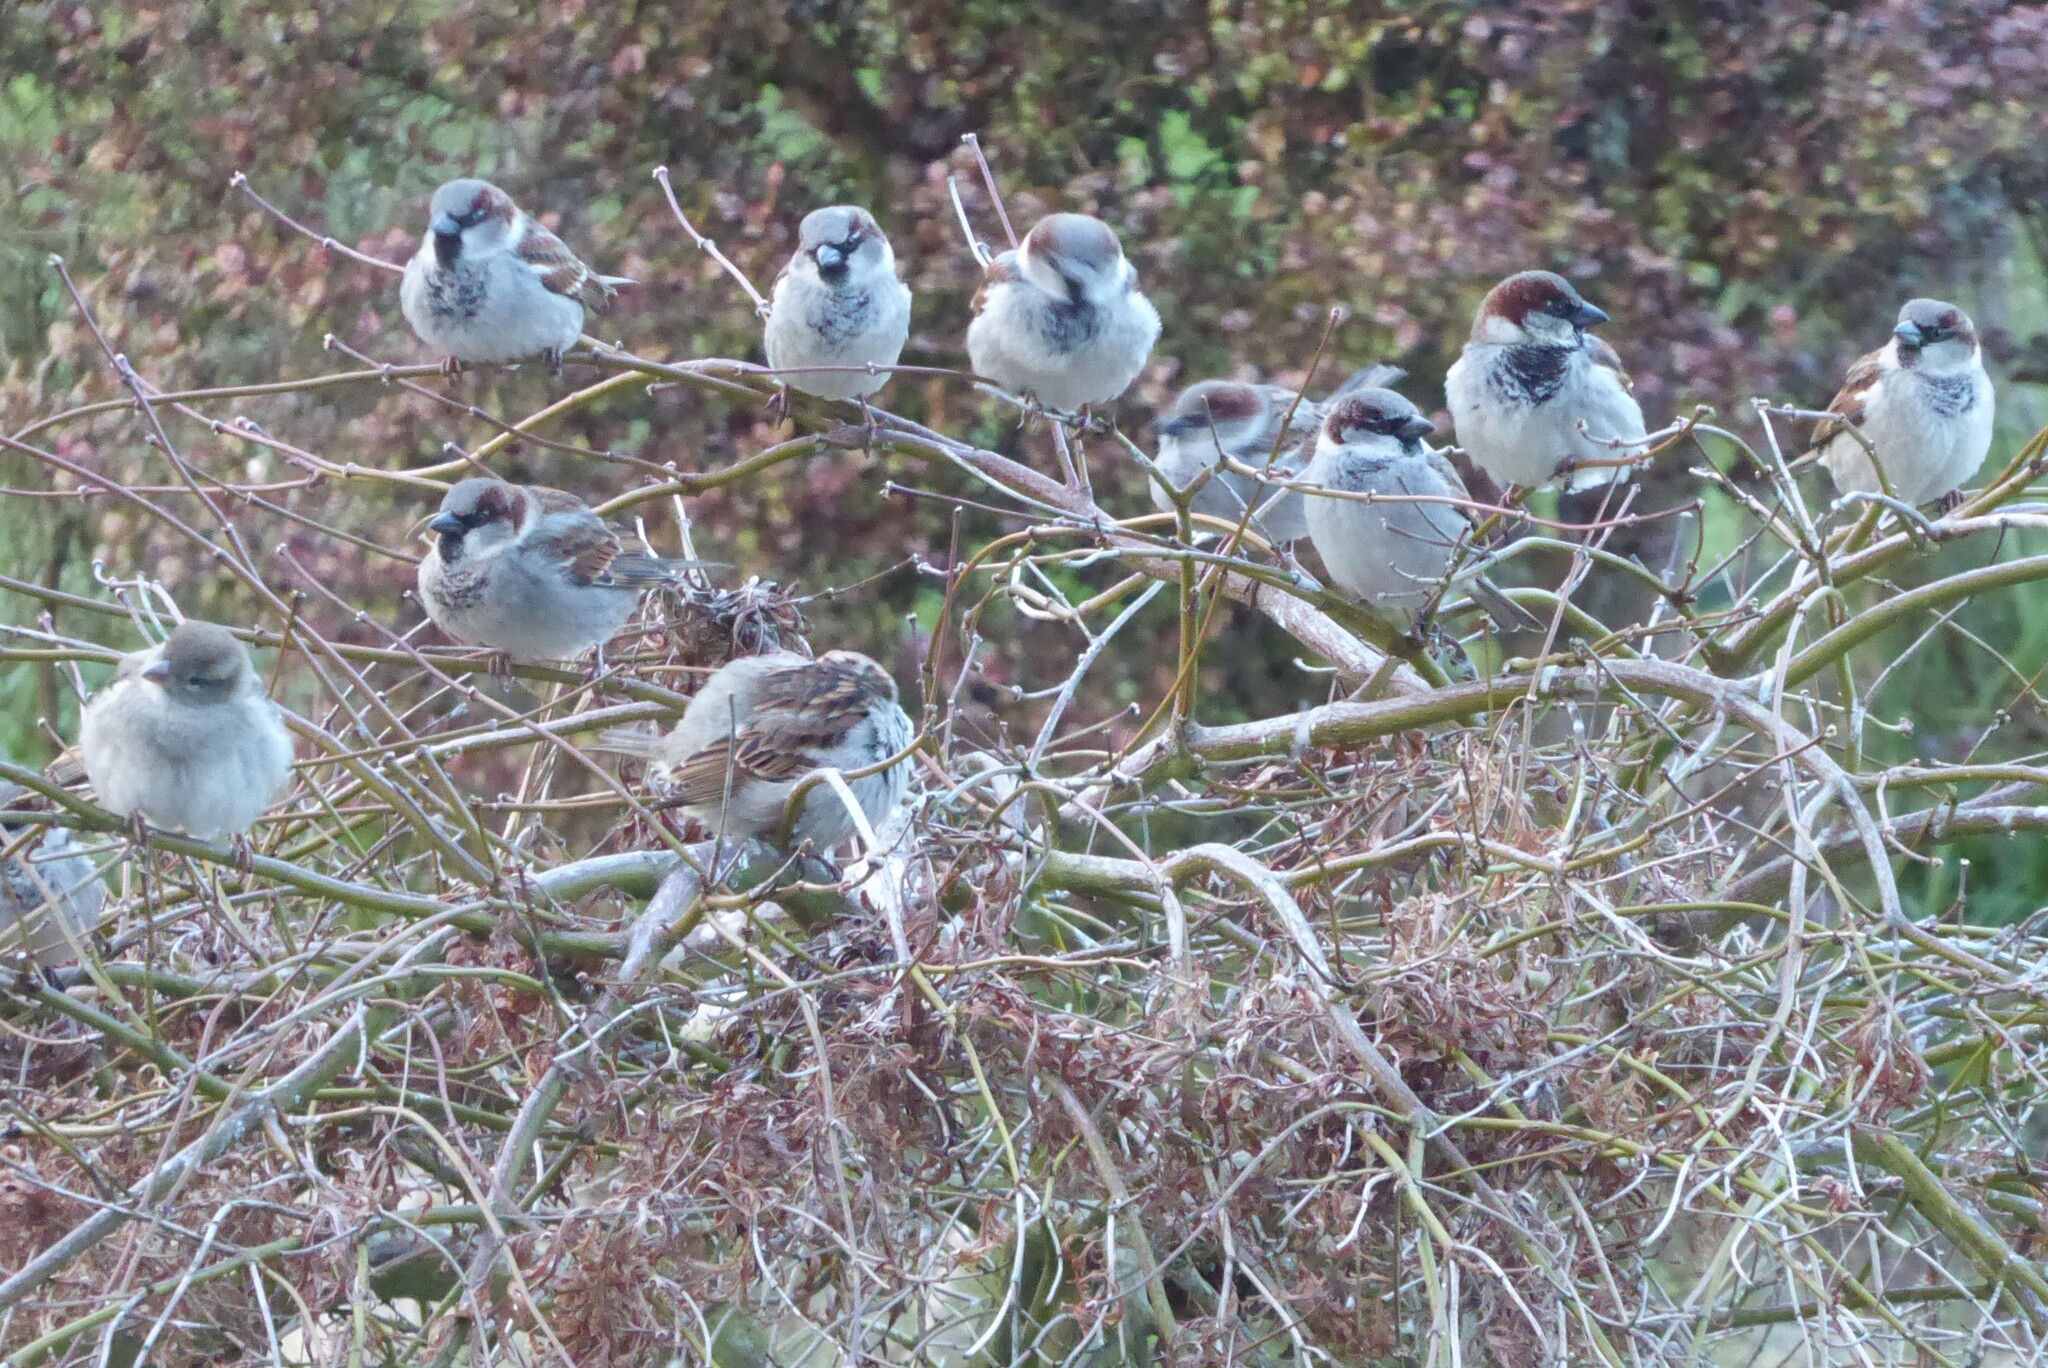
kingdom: Animalia
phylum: Chordata
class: Aves
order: Passeriformes
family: Passeridae
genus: Passer
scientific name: Passer domesticus
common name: House sparrow
